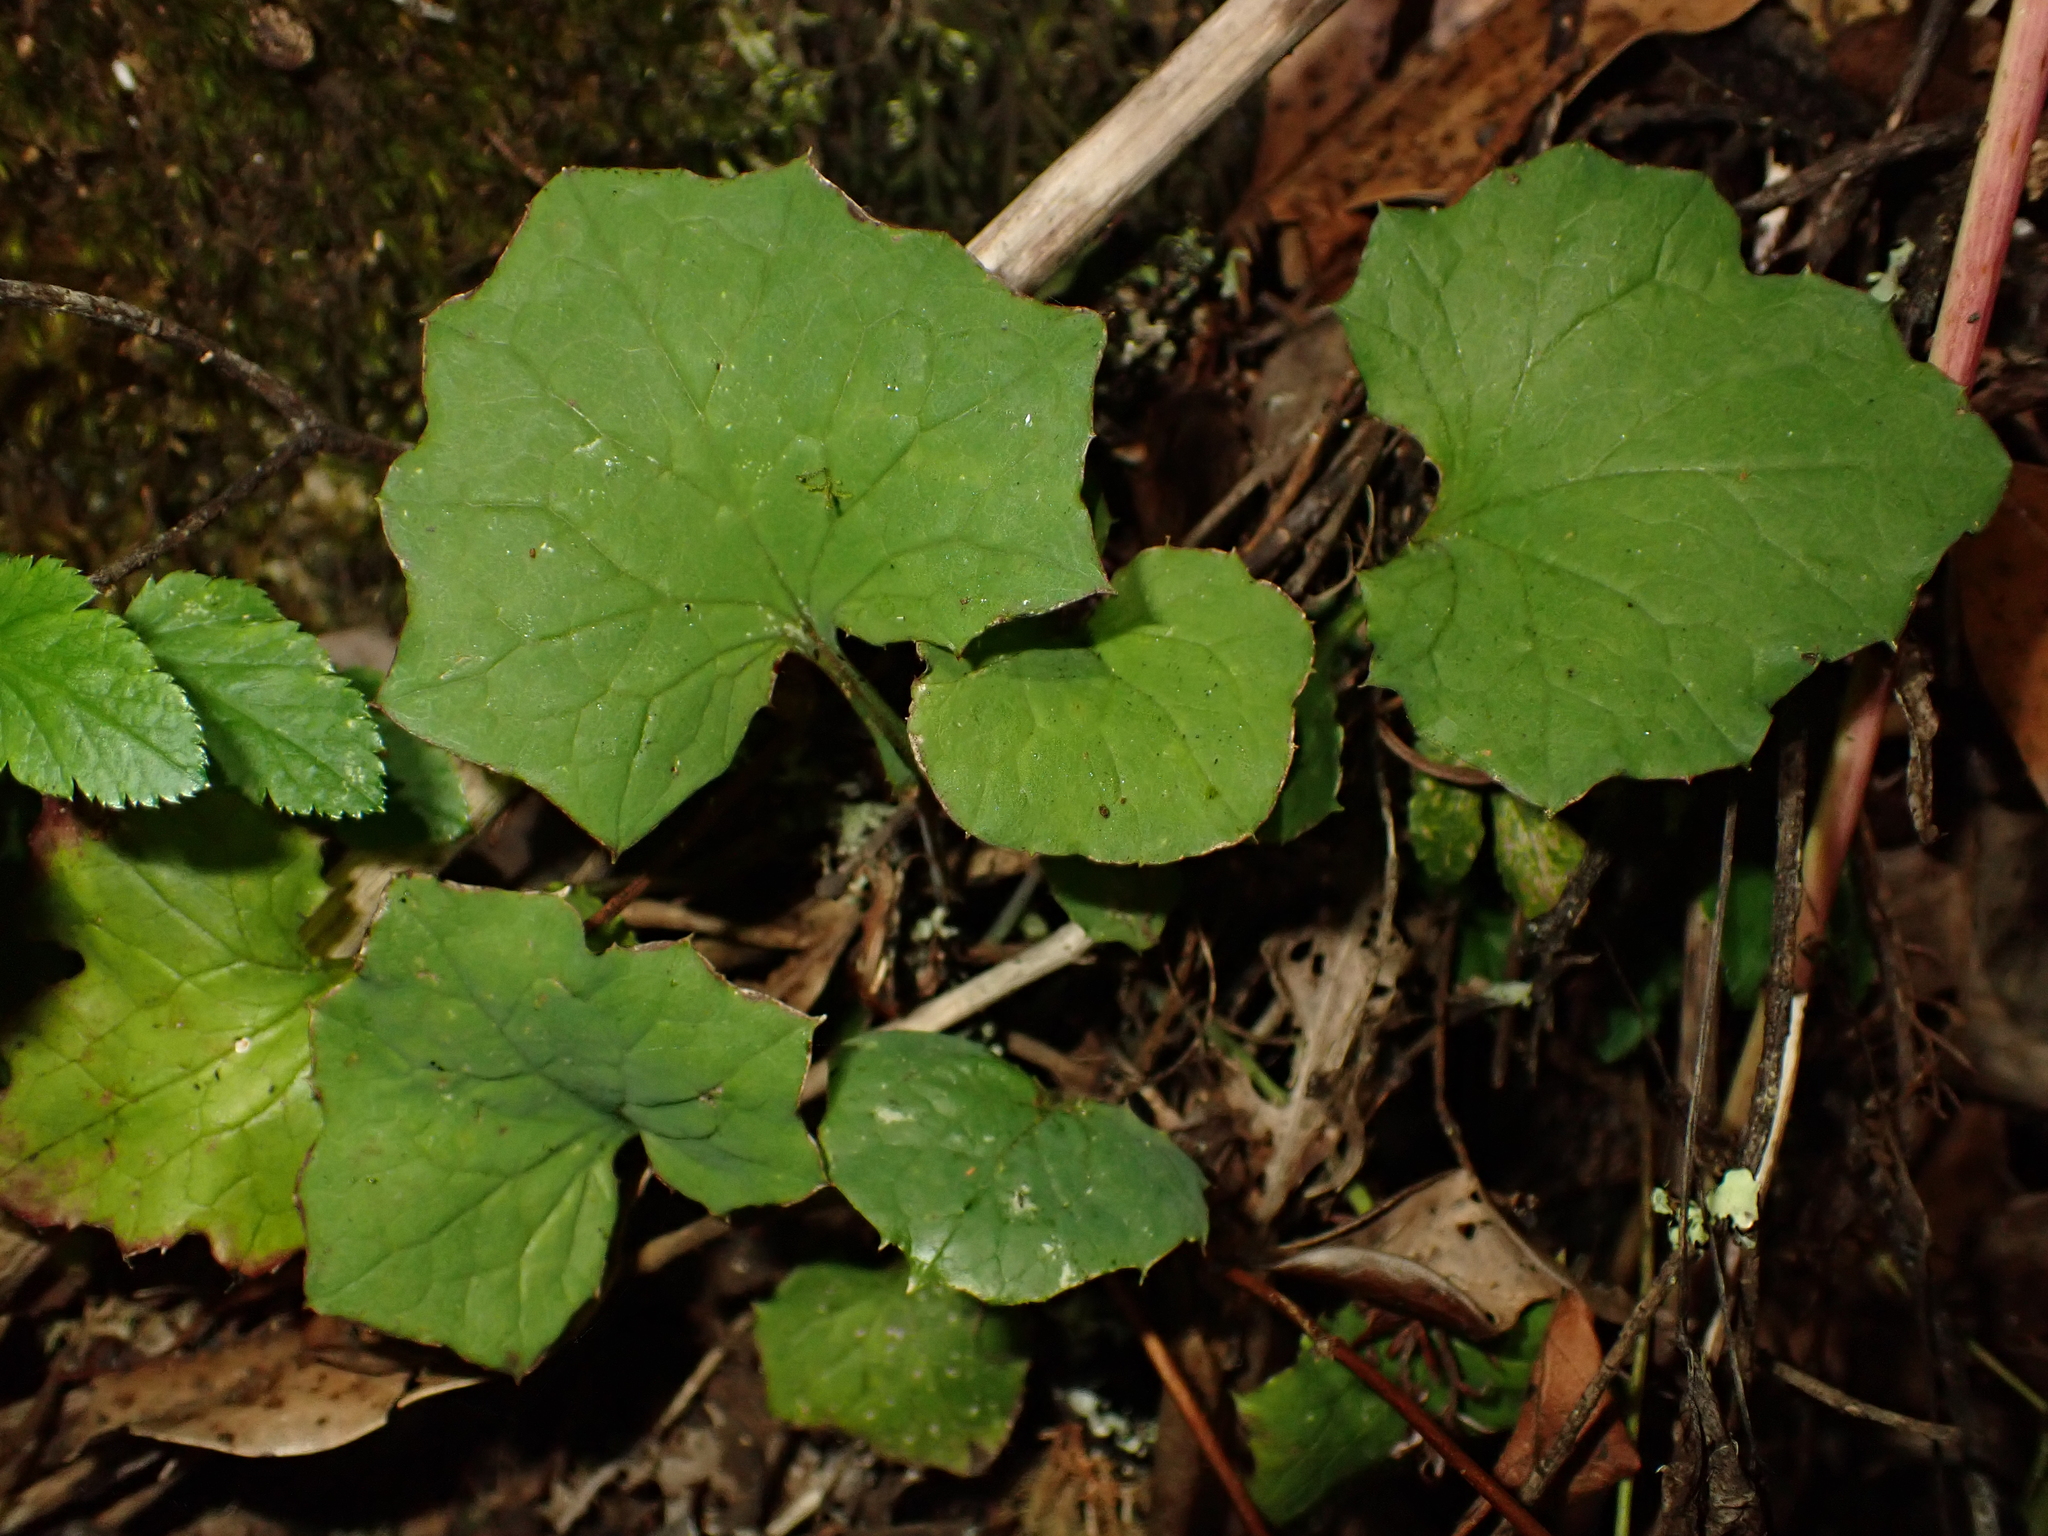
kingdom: Plantae
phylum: Tracheophyta
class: Magnoliopsida
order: Asterales
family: Asteraceae
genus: Mycelis
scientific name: Mycelis muralis
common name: Wall lettuce
